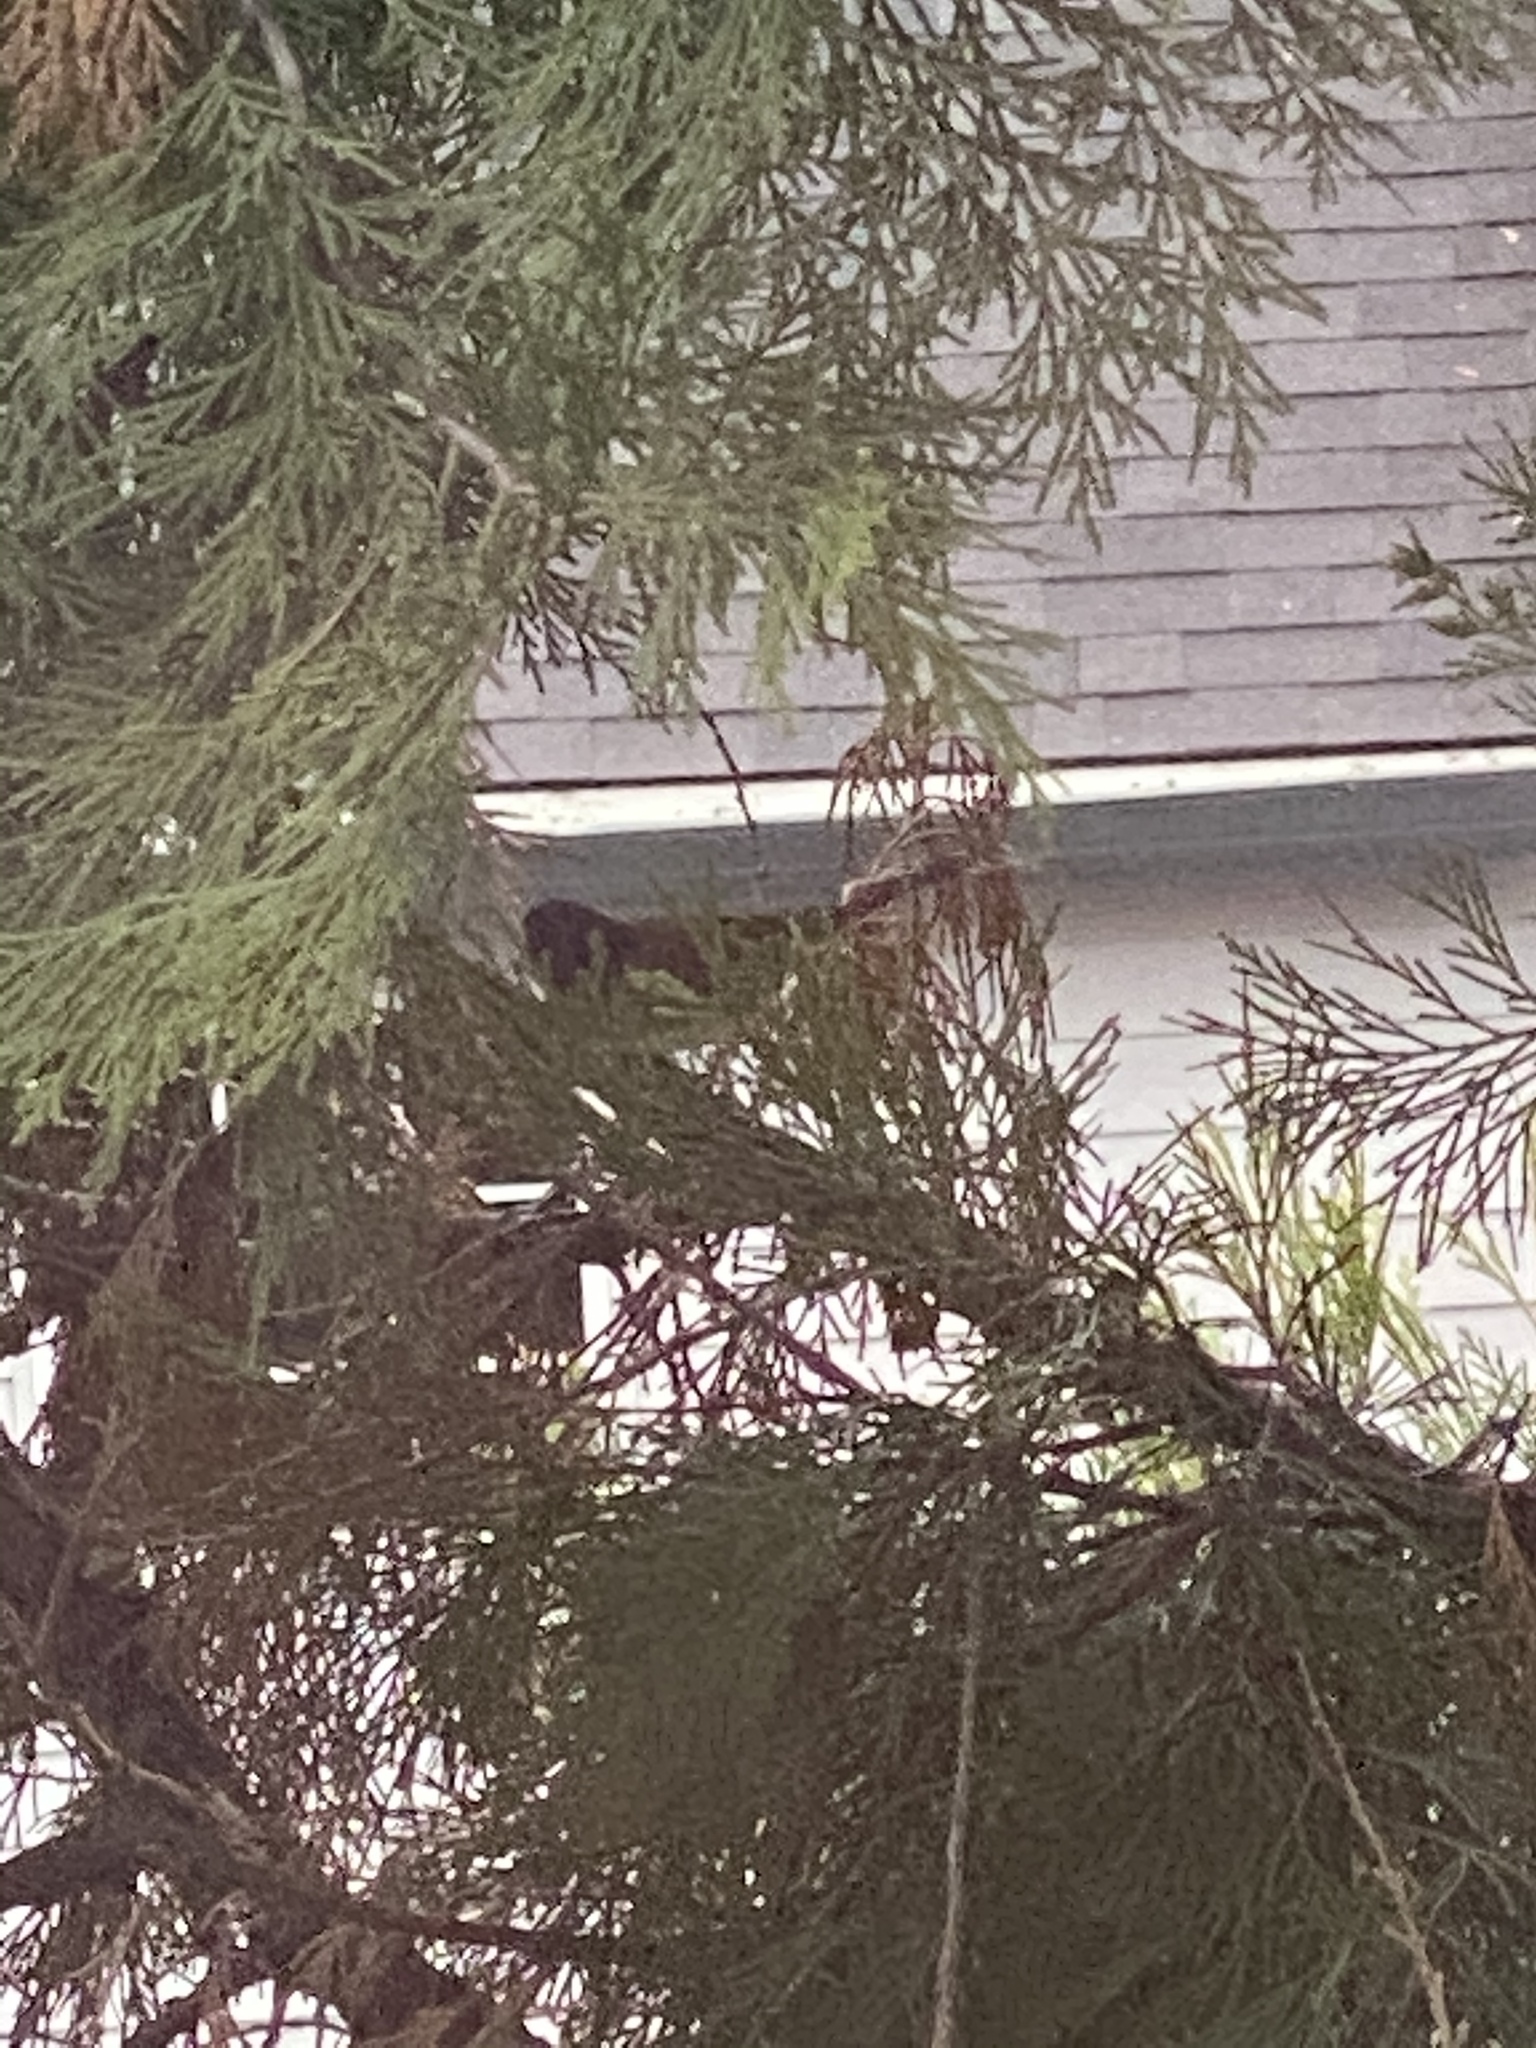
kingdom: Animalia
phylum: Chordata
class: Aves
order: Passeriformes
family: Passerellidae
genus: Junco
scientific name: Junco hyemalis
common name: Dark-eyed junco
